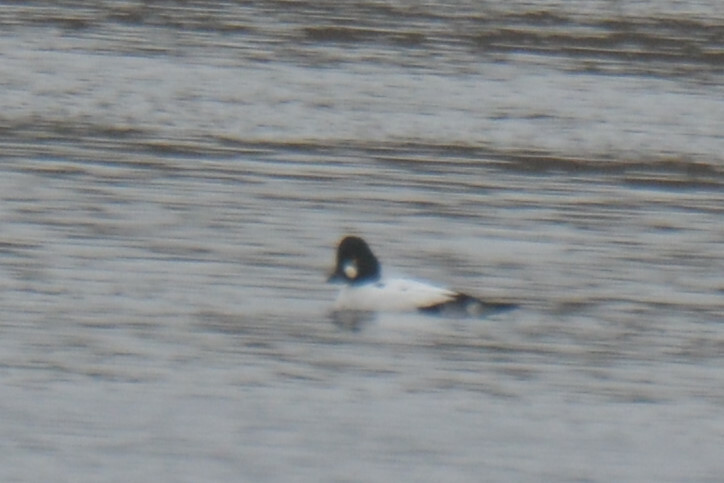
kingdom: Animalia
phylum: Chordata
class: Aves
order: Anseriformes
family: Anatidae
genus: Bucephala
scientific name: Bucephala clangula
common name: Common goldeneye
